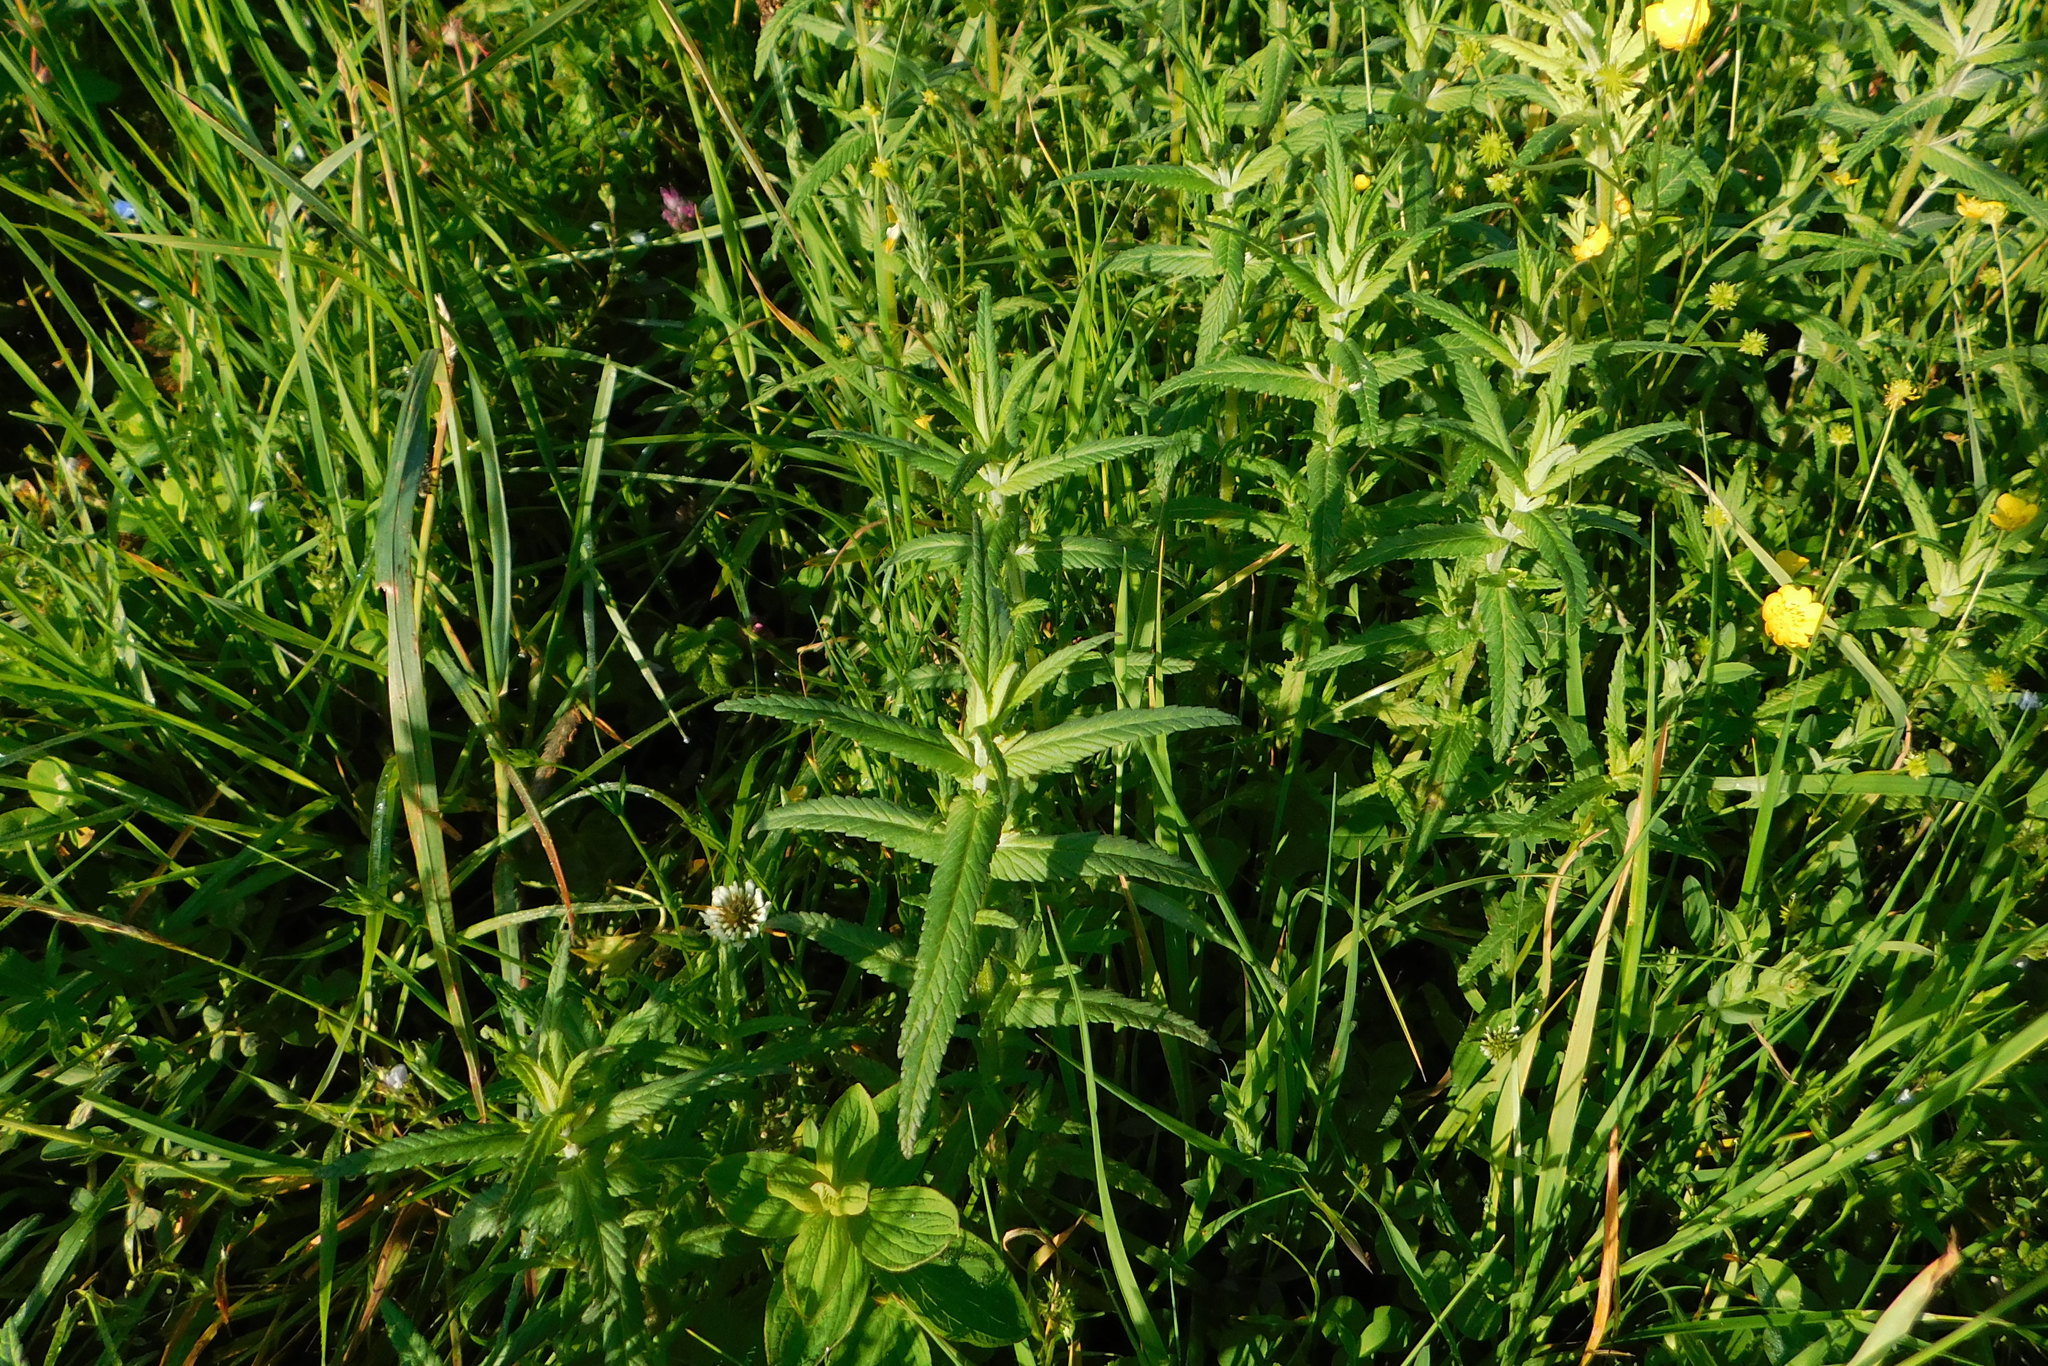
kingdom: Plantae
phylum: Tracheophyta
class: Magnoliopsida
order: Lamiales
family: Orobanchaceae
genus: Rhinanthus
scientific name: Rhinanthus alectorolophus
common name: Greater yellow-rattle
